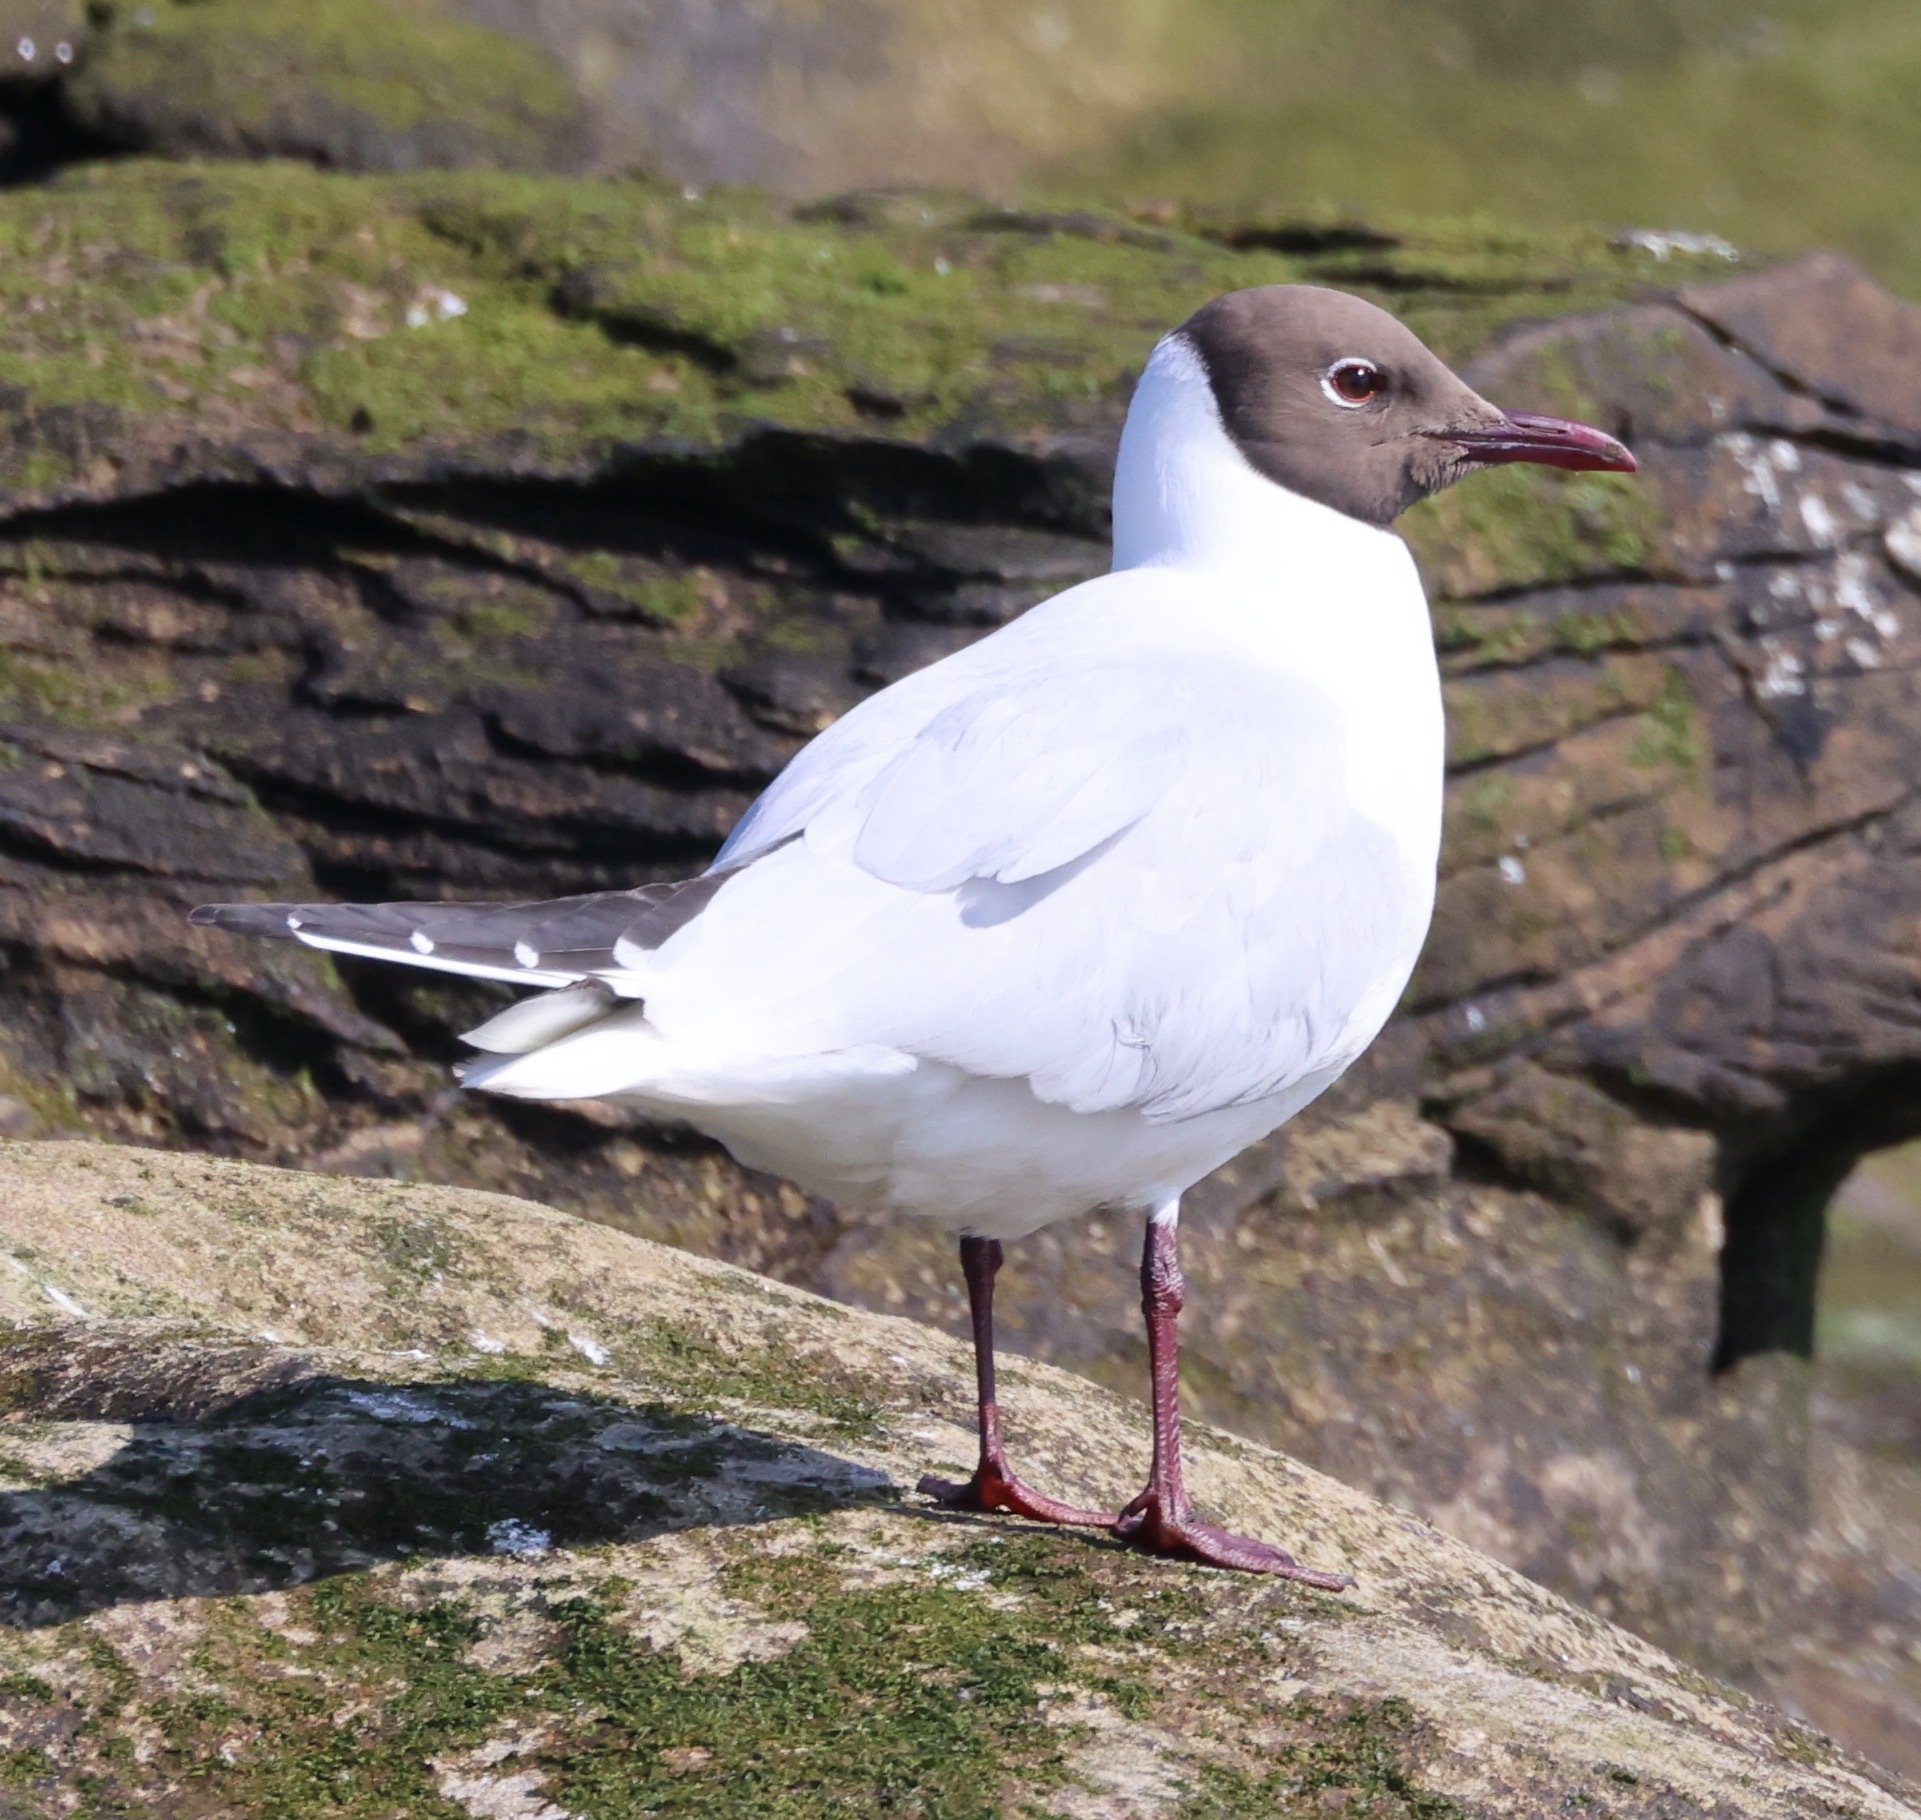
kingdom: Animalia
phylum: Chordata
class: Aves
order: Charadriiformes
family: Laridae
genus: Chroicocephalus
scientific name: Chroicocephalus ridibundus
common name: Black-headed gull
